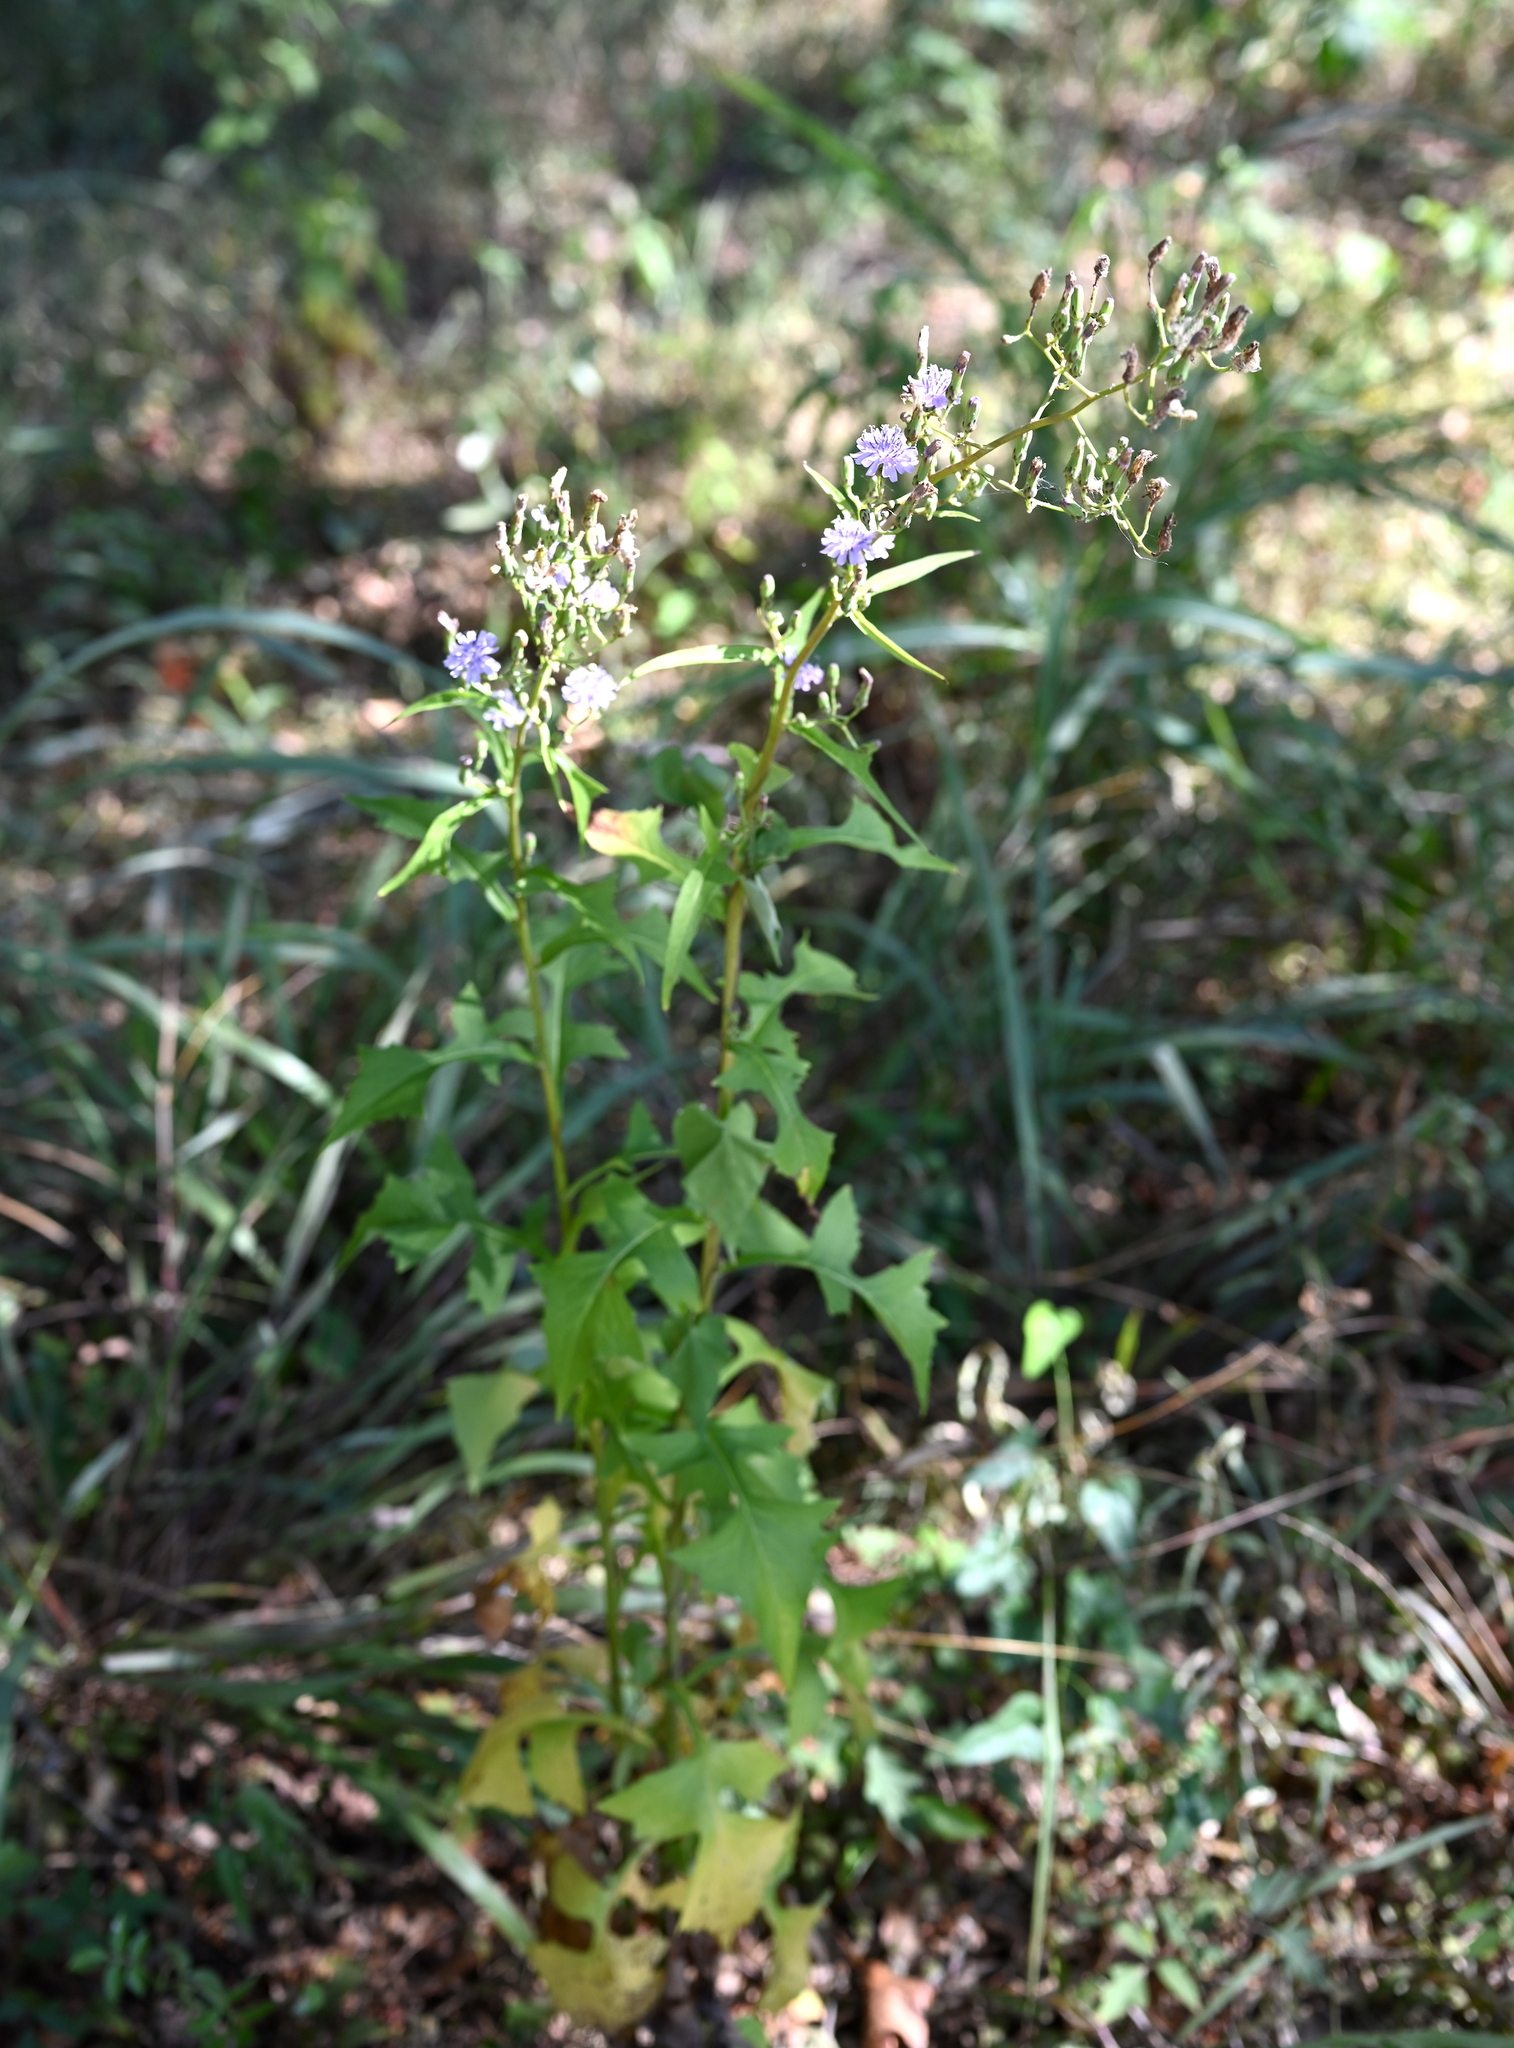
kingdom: Plantae
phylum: Tracheophyta
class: Magnoliopsida
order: Asterales
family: Asteraceae
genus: Lactuca
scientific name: Lactuca floridana
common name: Woodland lettuce
